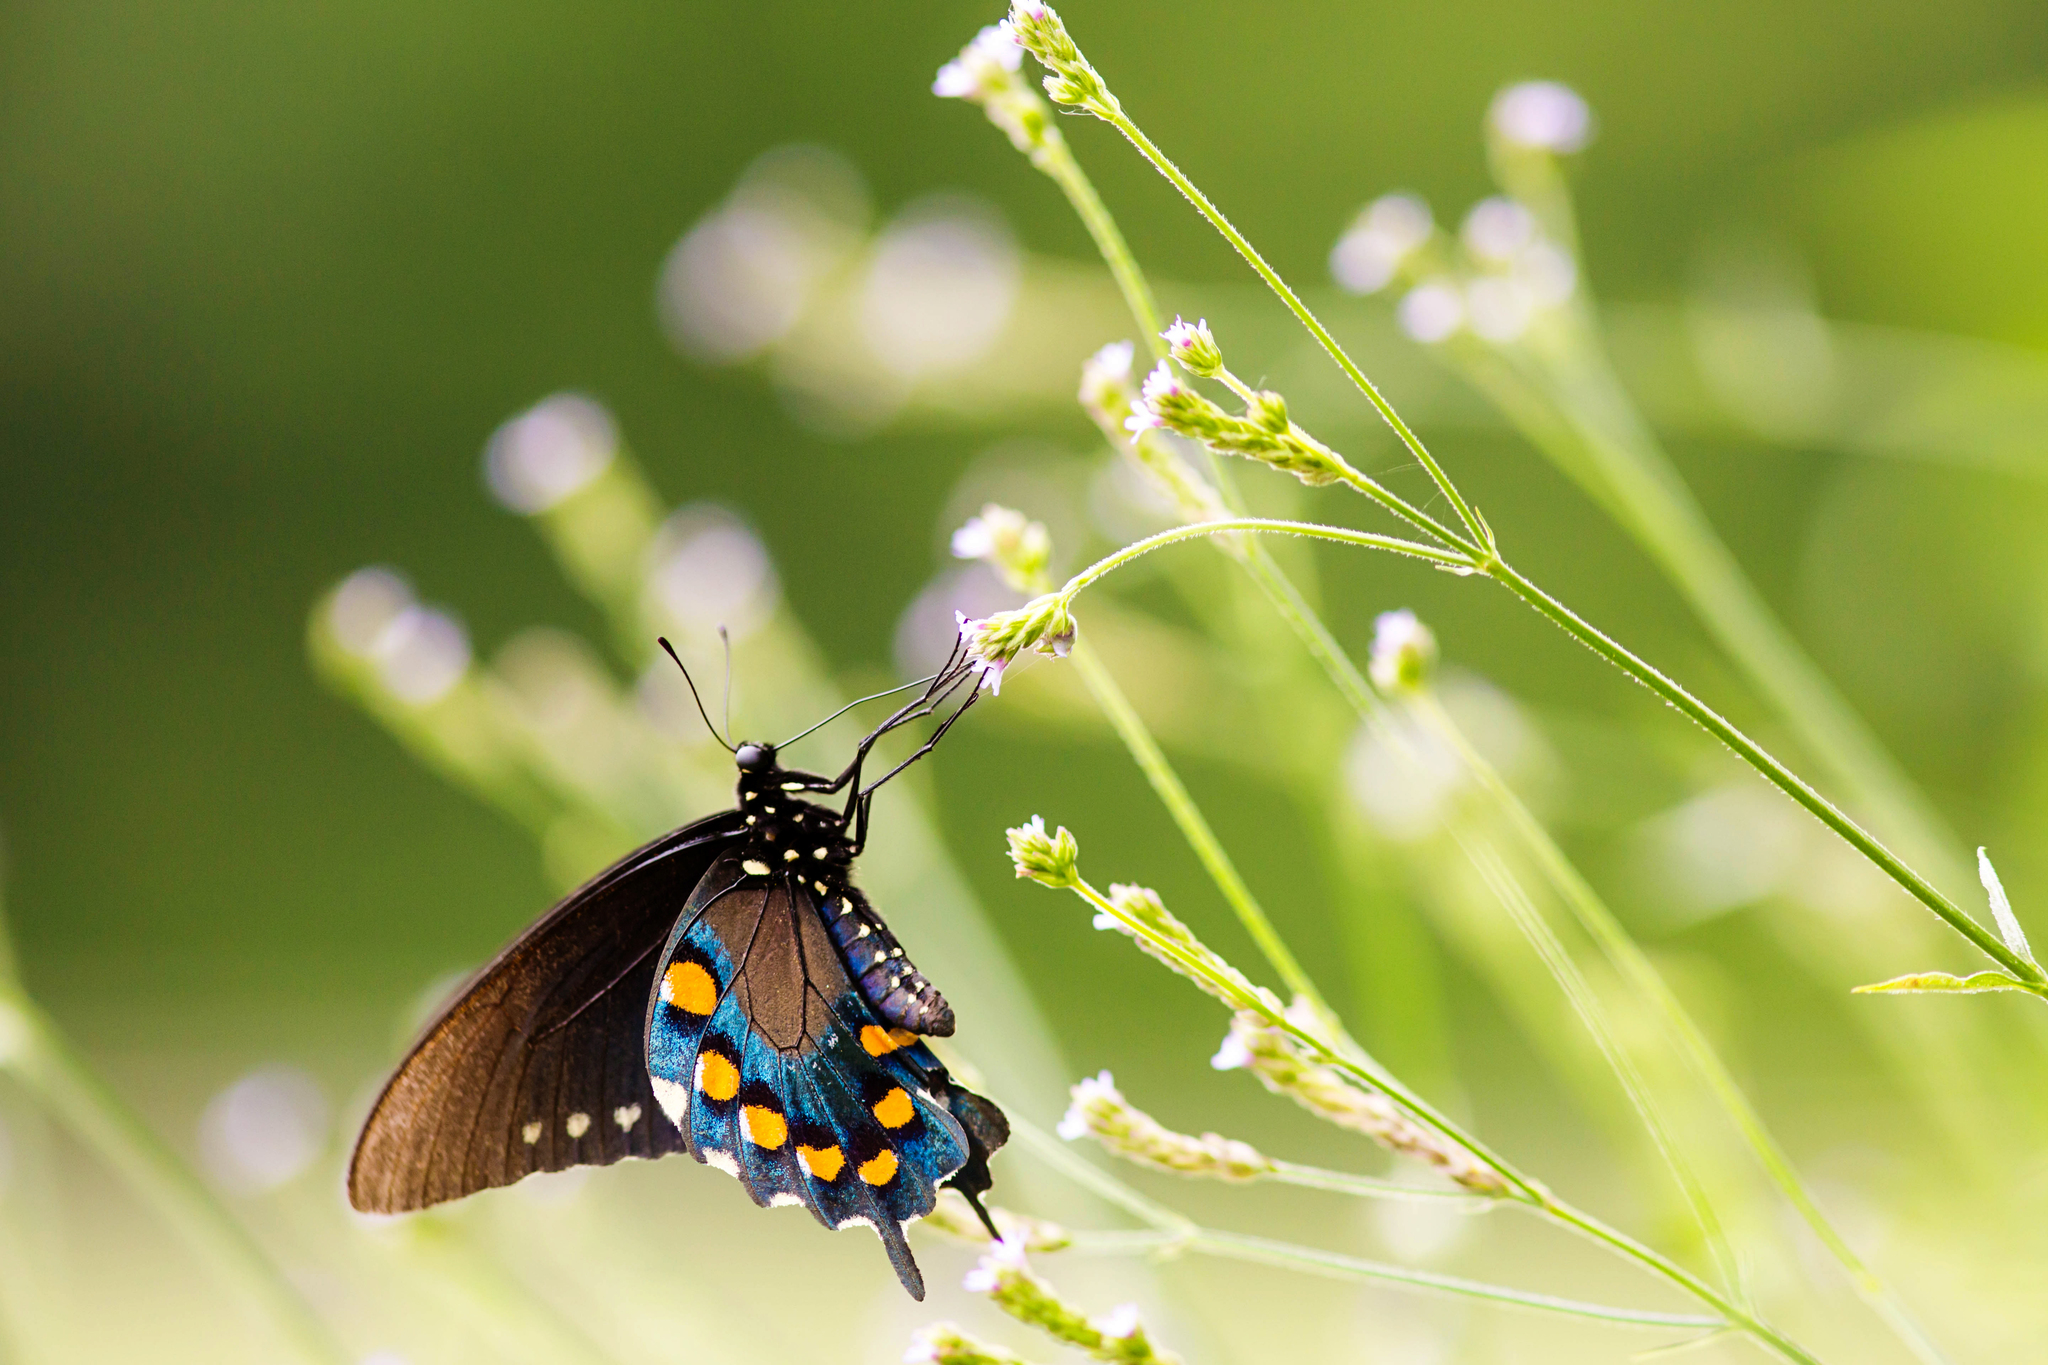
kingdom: Animalia
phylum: Arthropoda
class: Insecta
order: Lepidoptera
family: Papilionidae
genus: Battus
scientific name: Battus philenor
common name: Pipevine swallowtail
